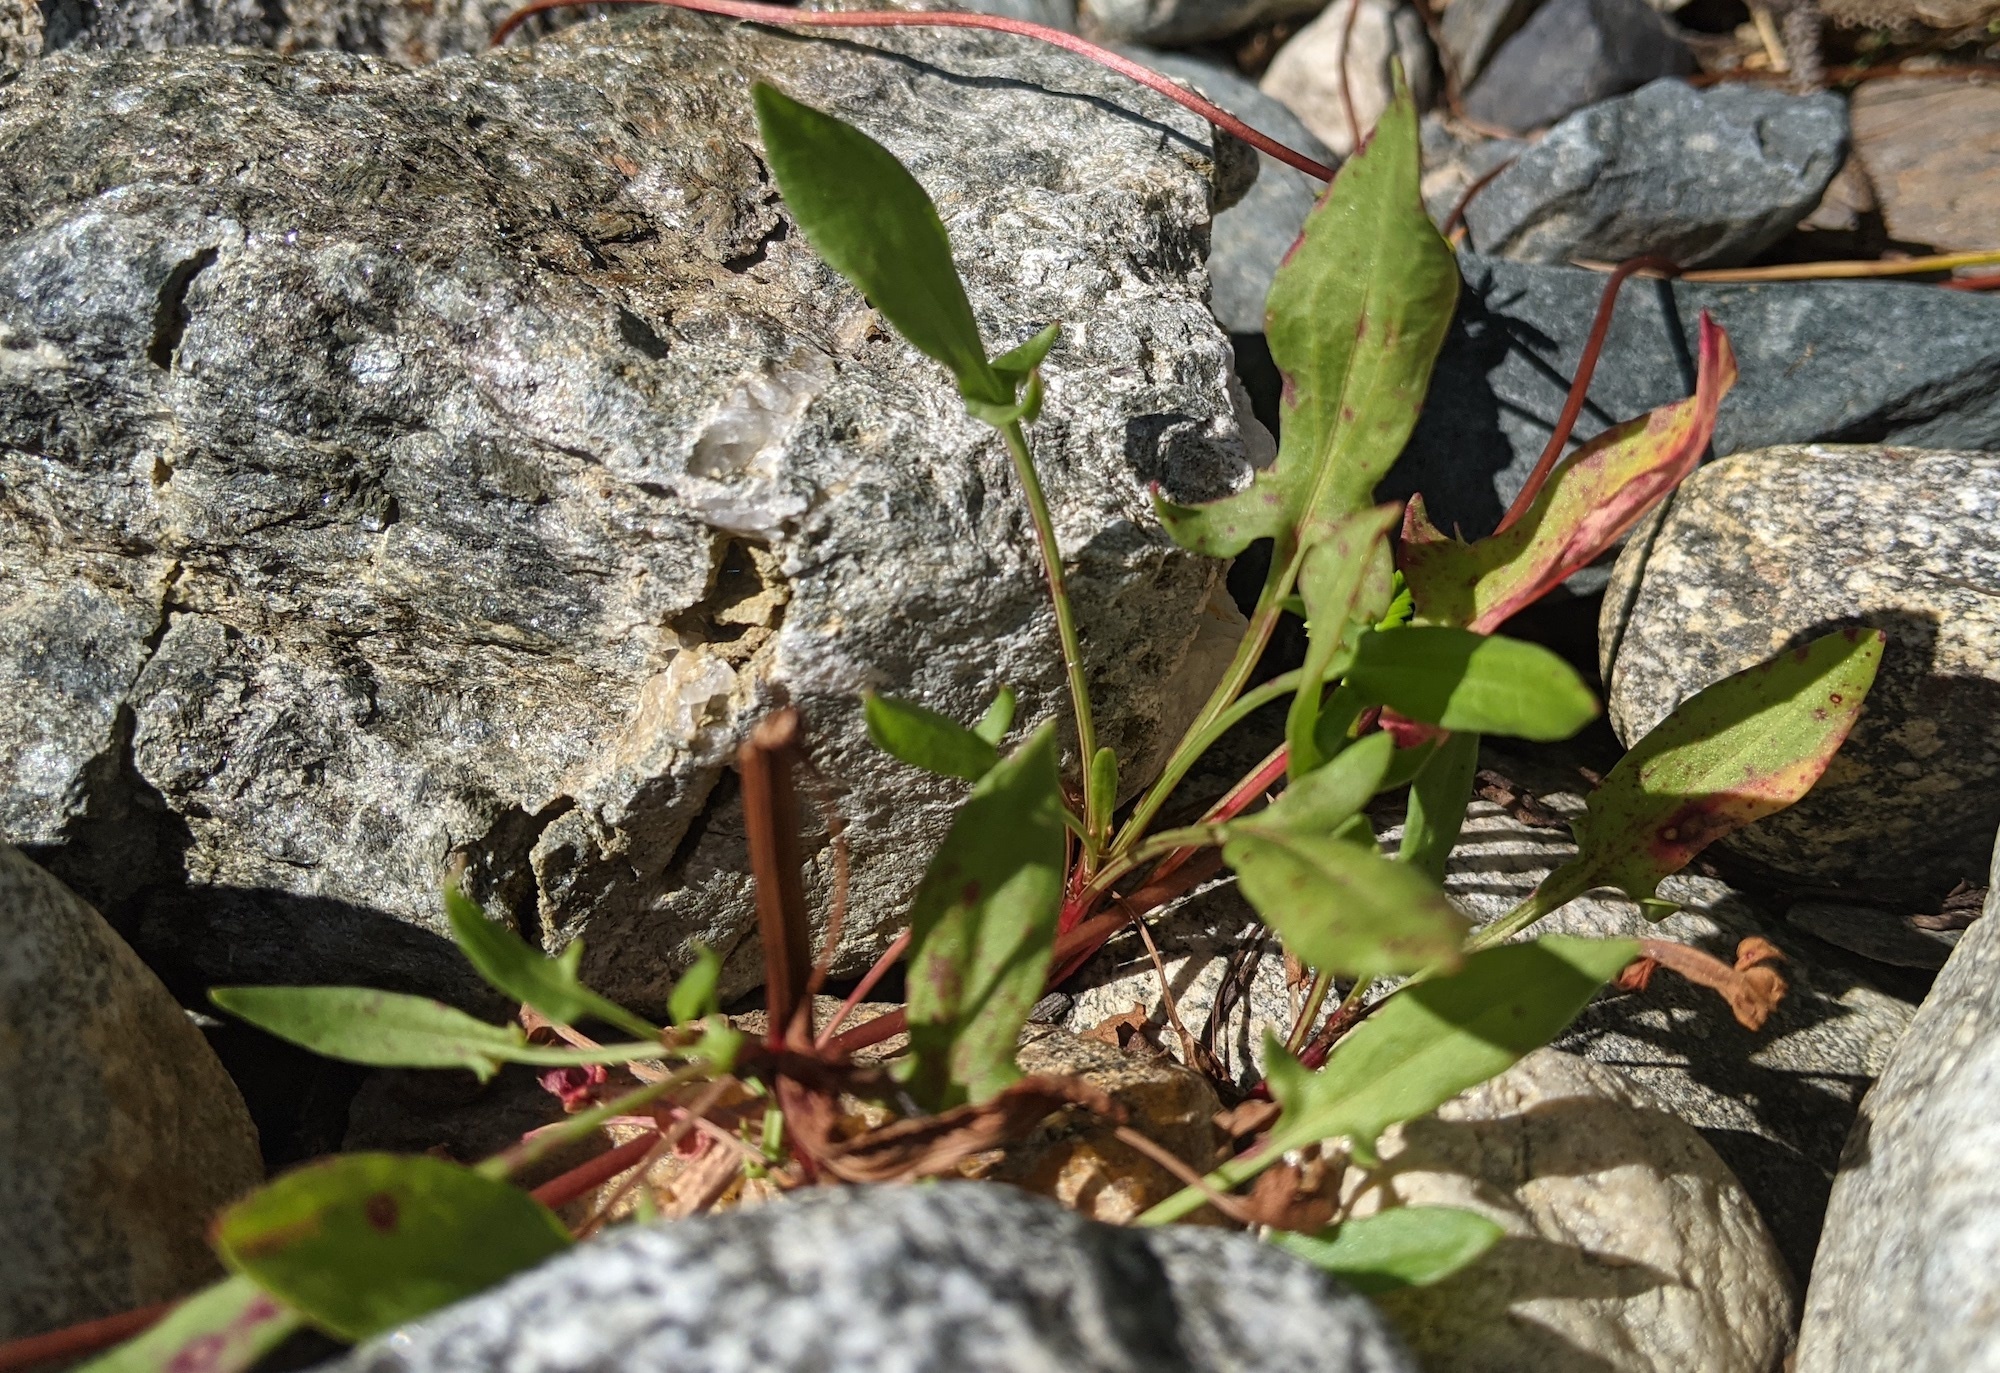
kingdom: Plantae
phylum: Tracheophyta
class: Magnoliopsida
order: Caryophyllales
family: Polygonaceae
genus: Rumex
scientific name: Rumex acetosella
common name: Common sheep sorrel
